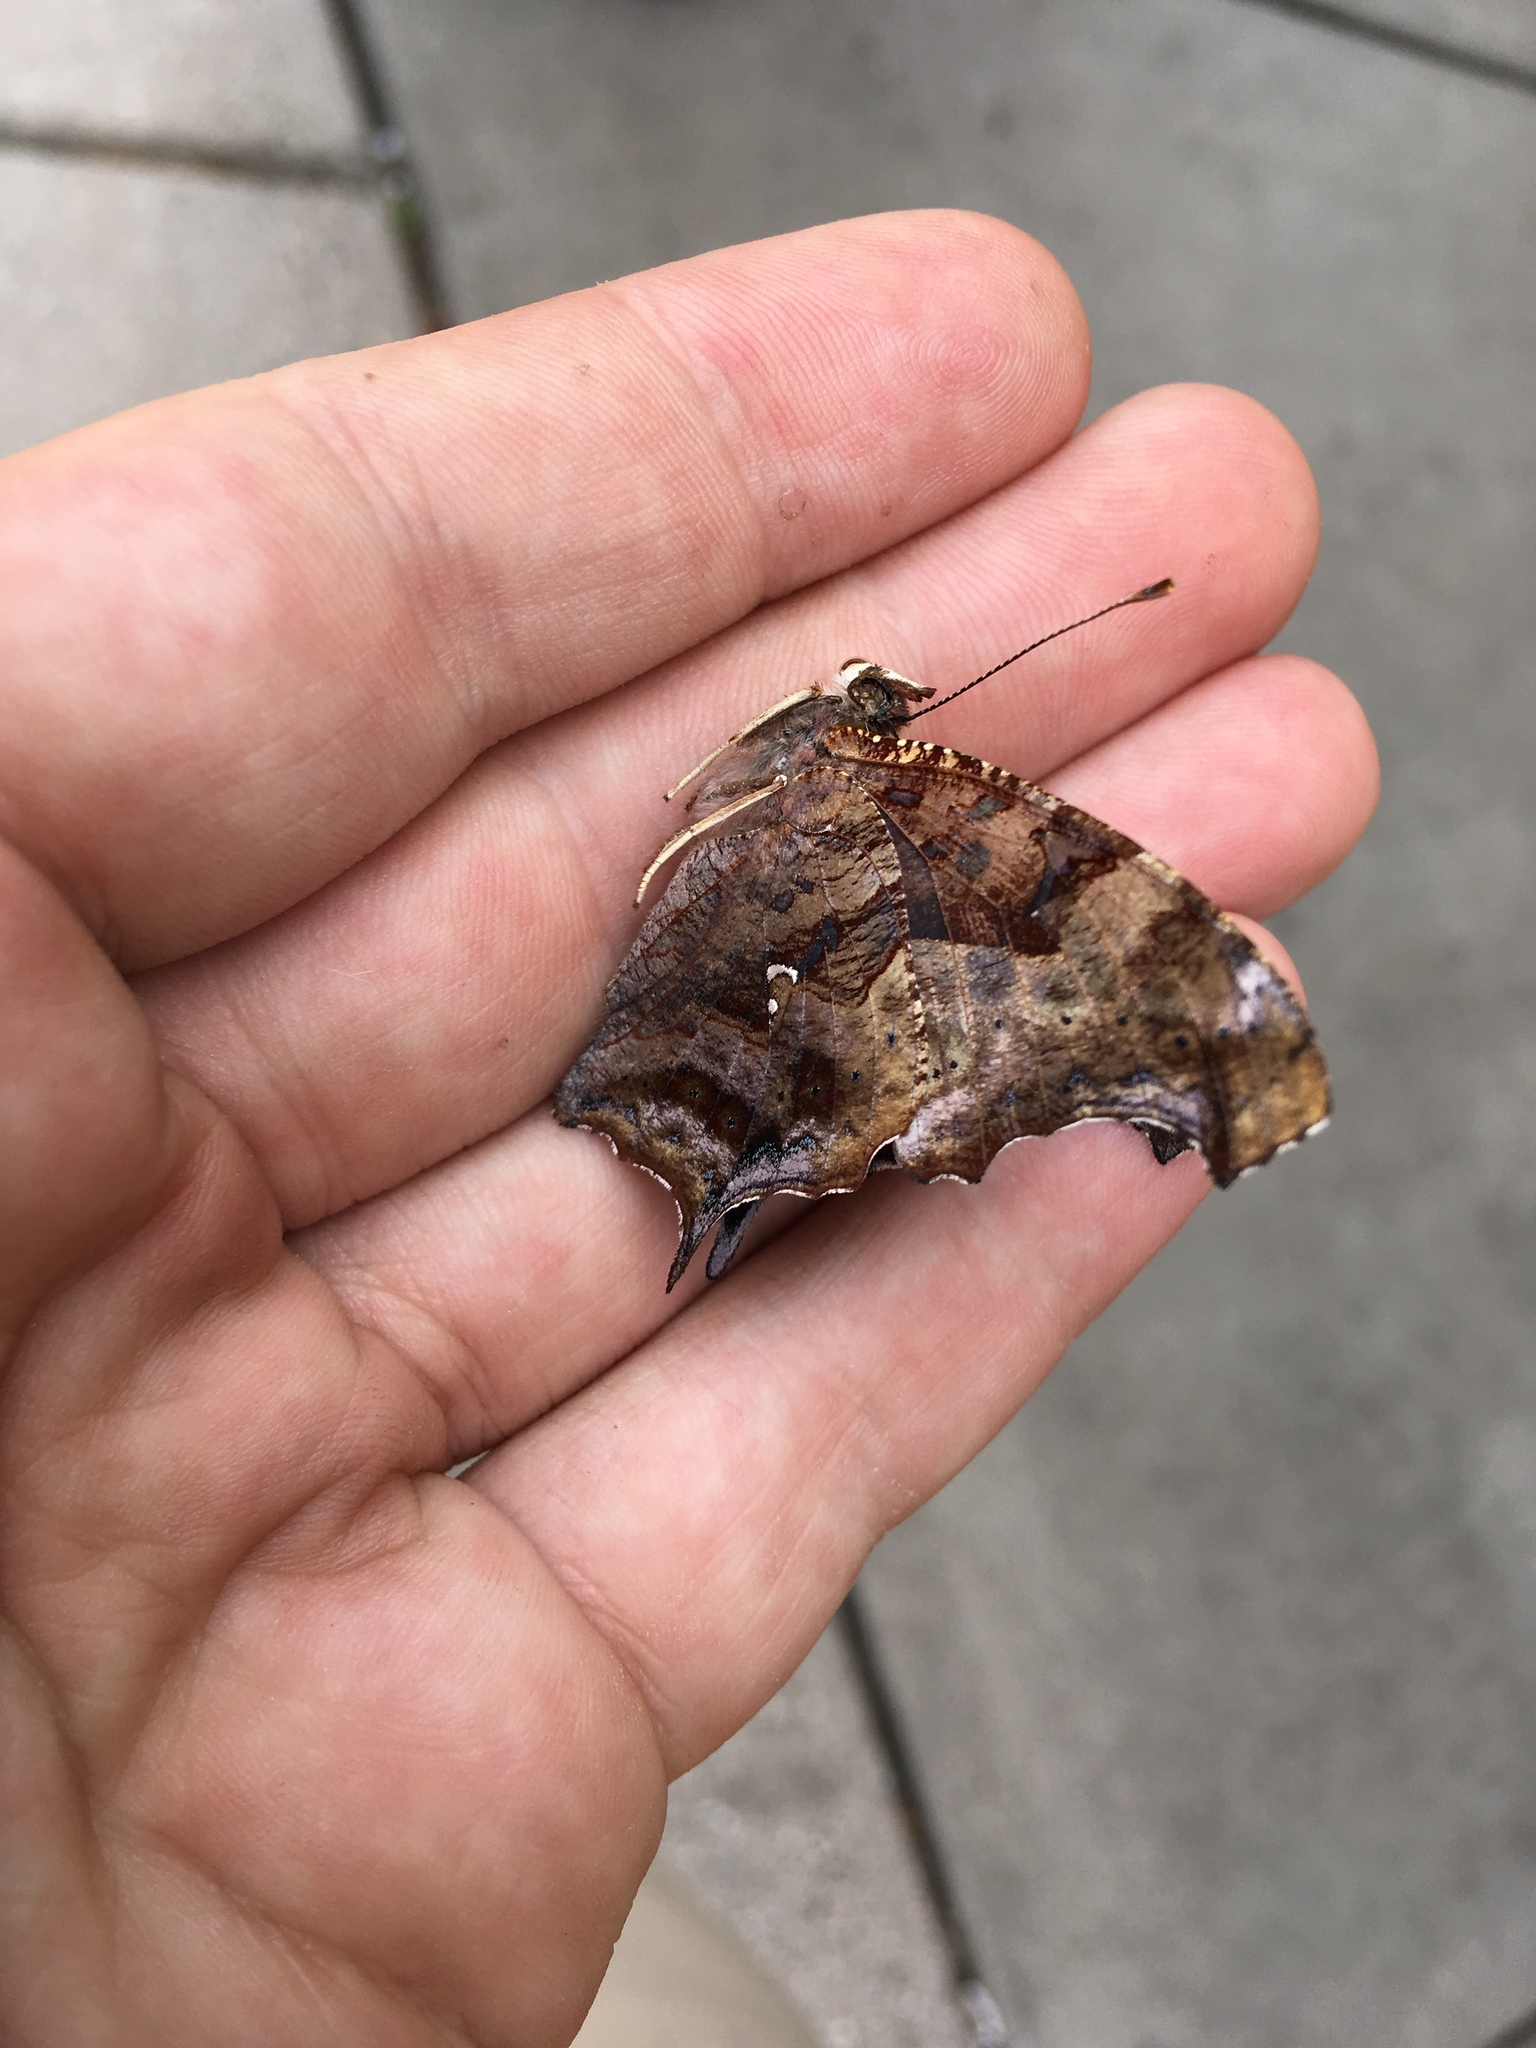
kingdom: Animalia
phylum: Arthropoda
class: Insecta
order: Lepidoptera
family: Nymphalidae
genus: Polygonia
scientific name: Polygonia interrogationis
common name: Question mark
